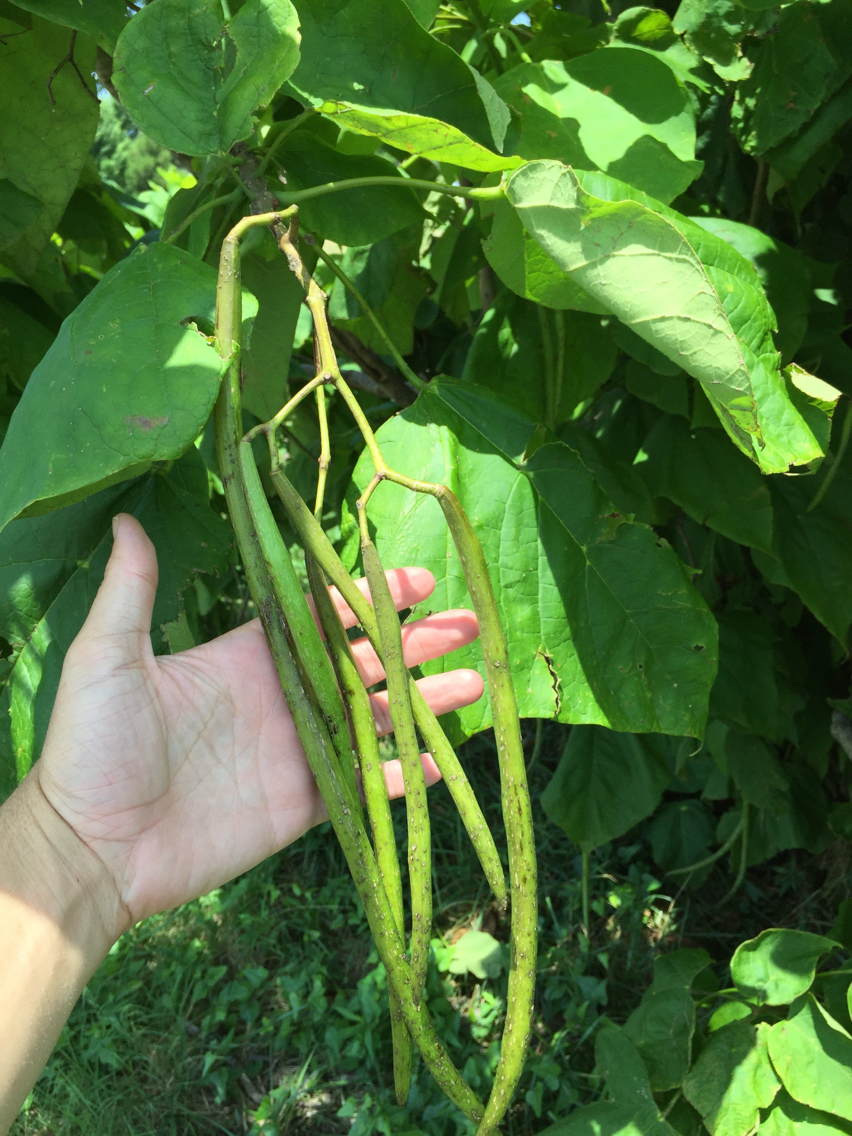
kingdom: Plantae
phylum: Tracheophyta
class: Magnoliopsida
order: Lamiales
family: Bignoniaceae
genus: Catalpa
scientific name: Catalpa speciosa
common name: Northern catalpa
